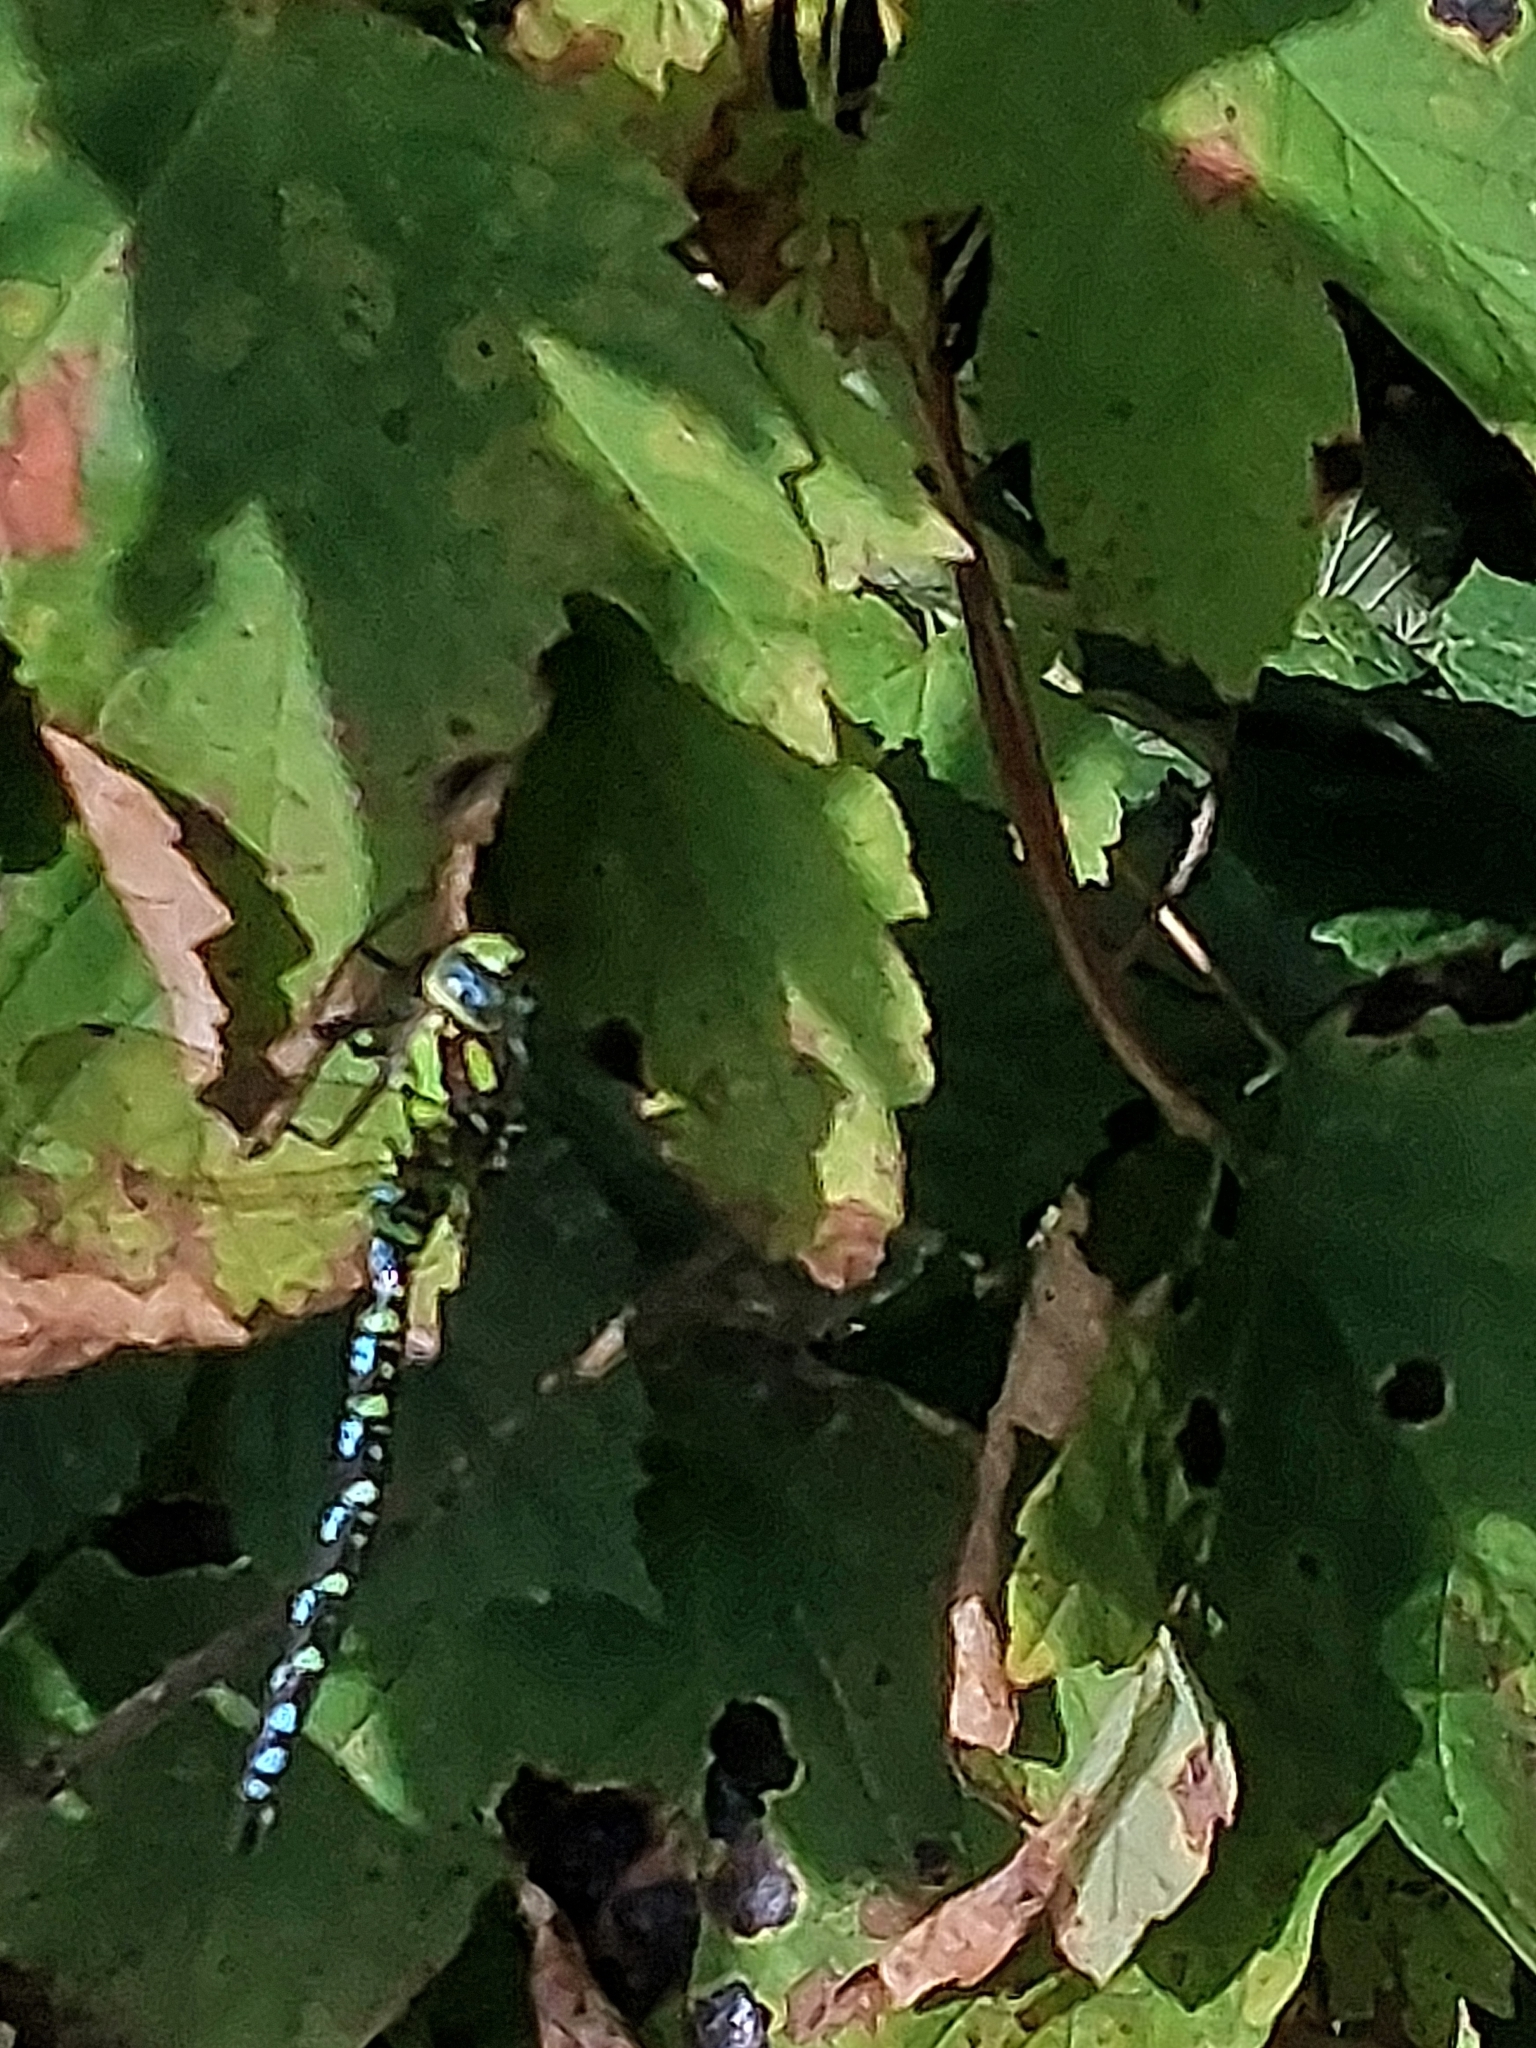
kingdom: Animalia
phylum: Arthropoda
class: Insecta
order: Odonata
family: Aeshnidae
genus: Aeshna
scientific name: Aeshna cyanea
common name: Southern hawker
